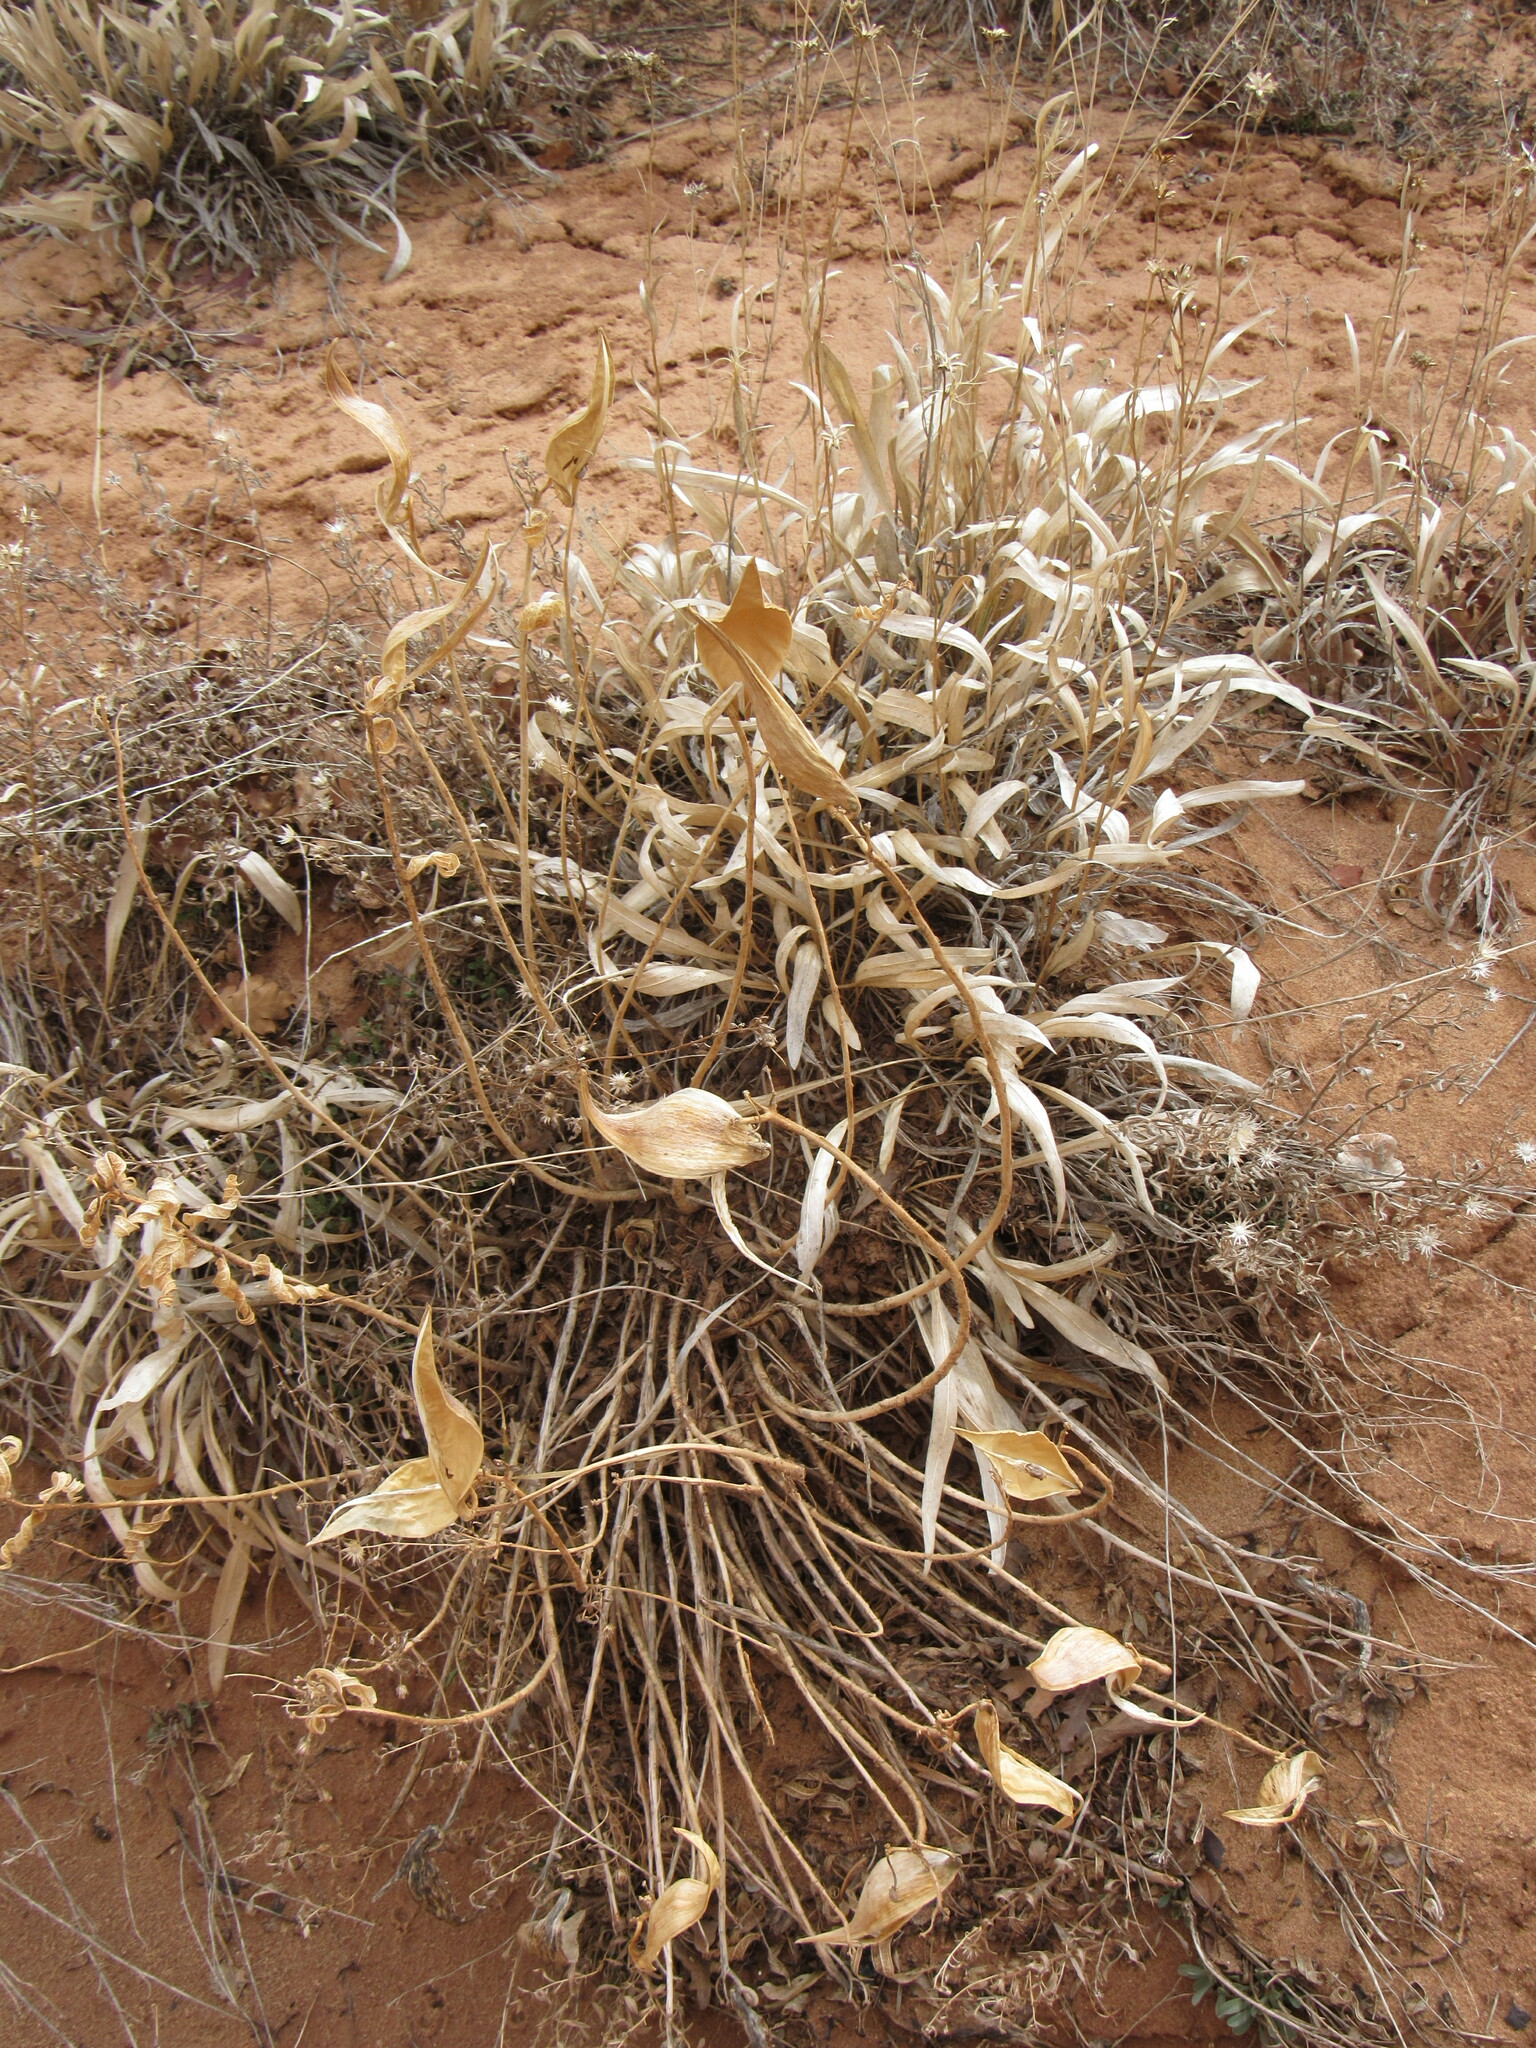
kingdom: Plantae
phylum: Tracheophyta
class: Magnoliopsida
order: Gentianales
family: Apocynaceae
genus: Asclepias
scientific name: Asclepias tuberosa
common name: Butterfly milkweed
